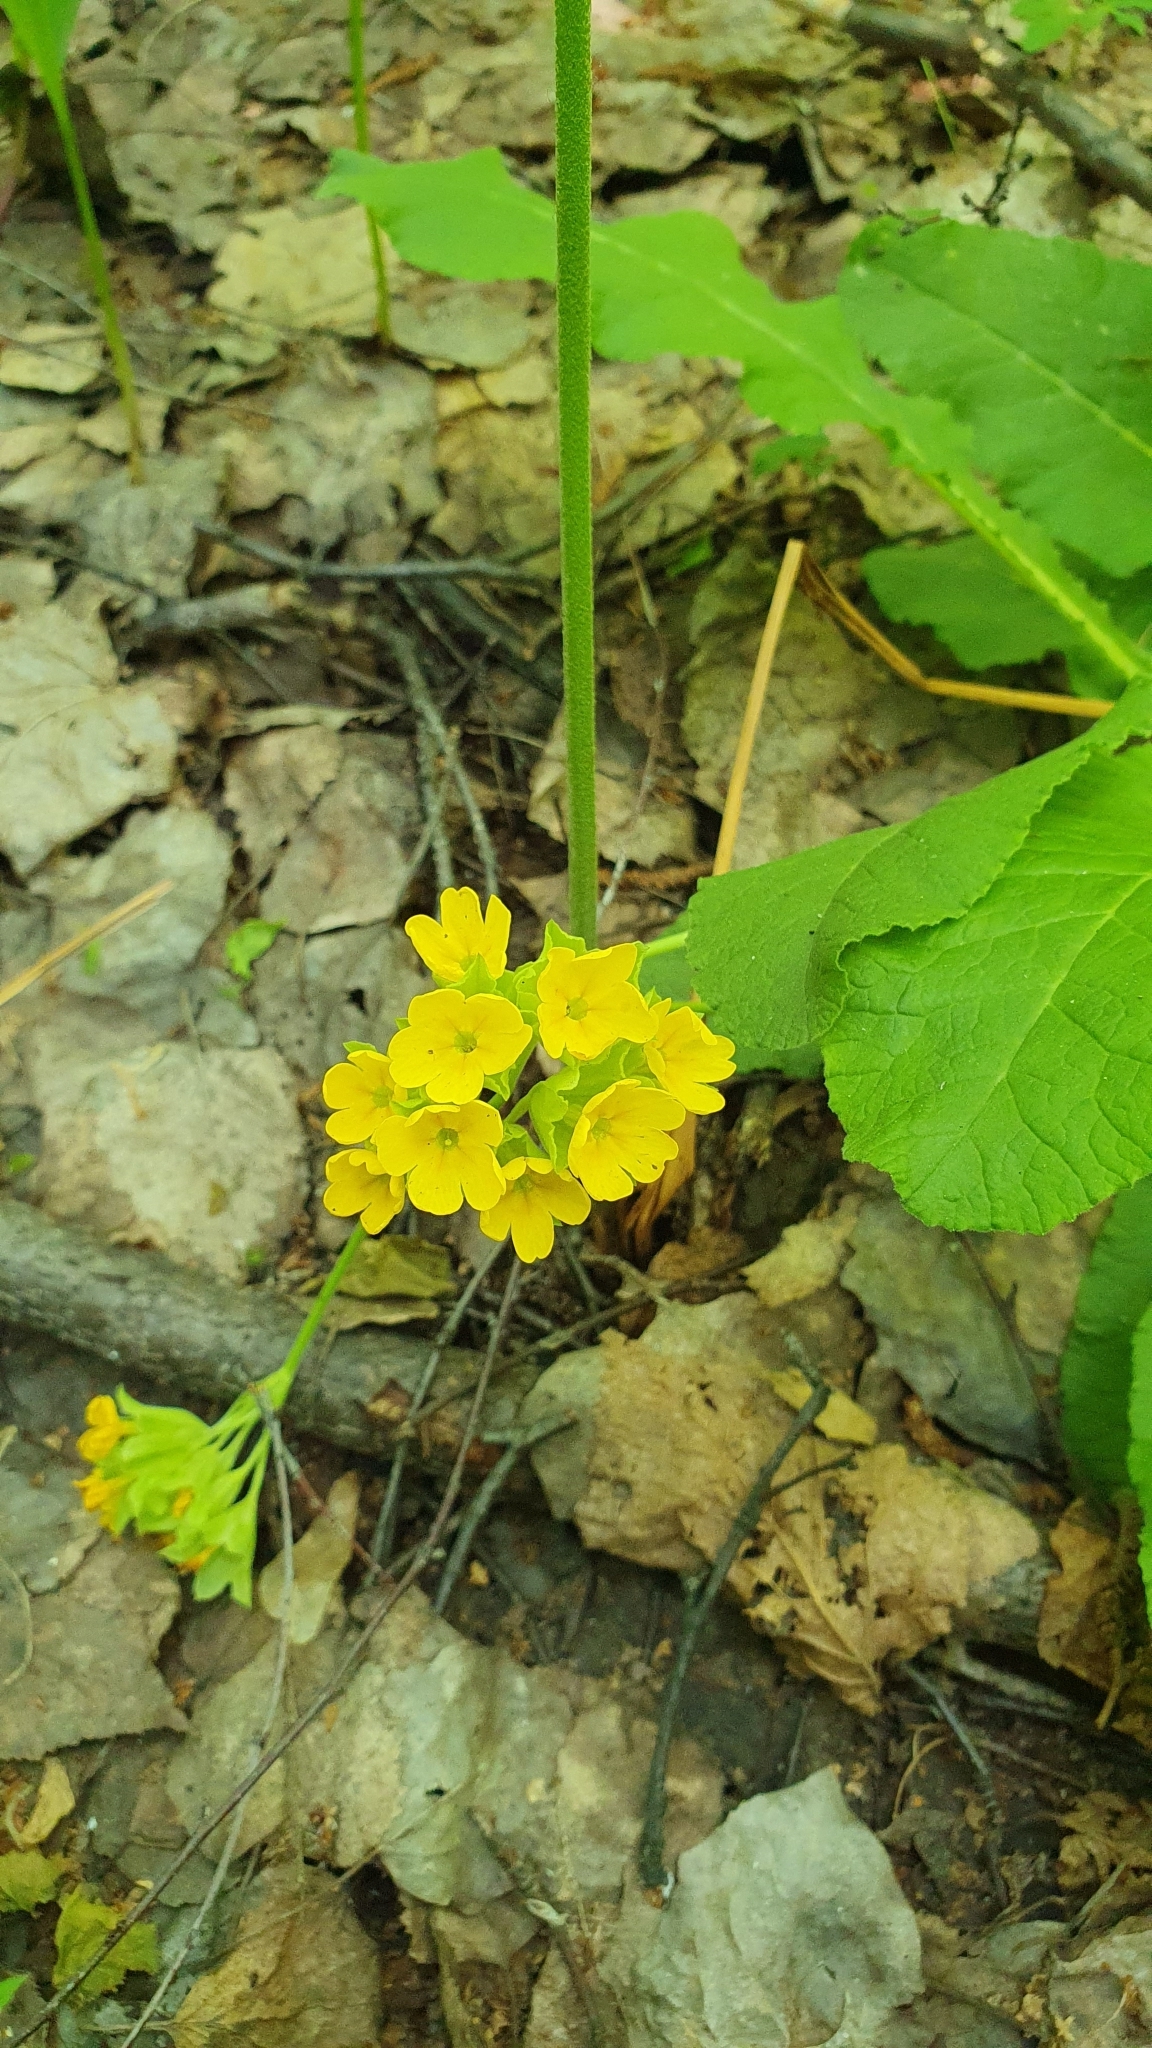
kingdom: Plantae
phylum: Tracheophyta
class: Magnoliopsida
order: Ericales
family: Primulaceae
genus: Primula
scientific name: Primula veris
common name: Cowslip
